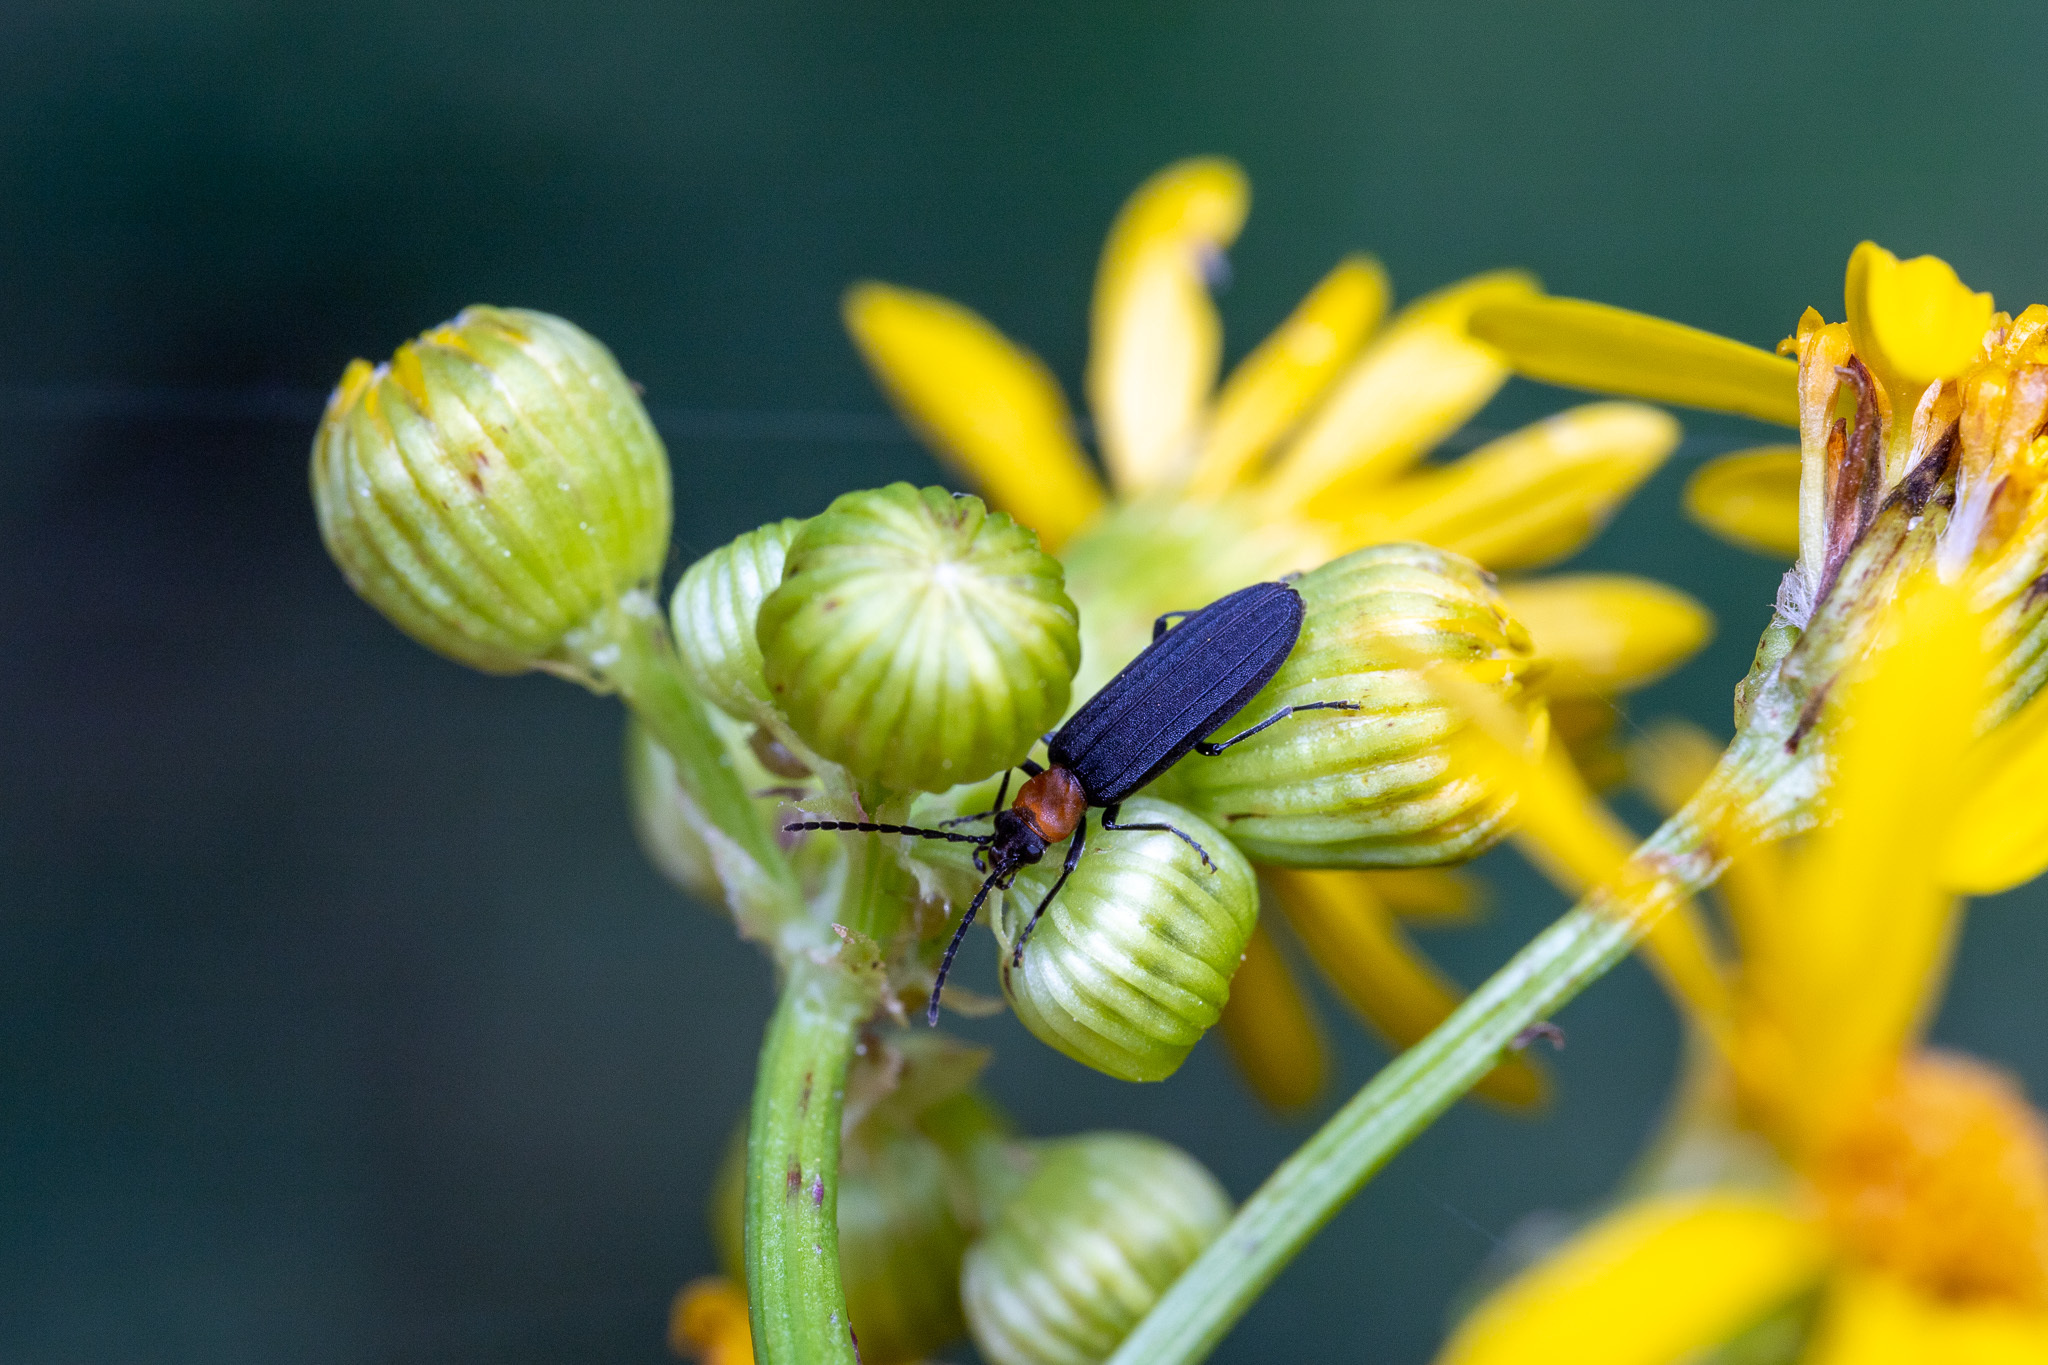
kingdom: Animalia
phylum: Arthropoda
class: Insecta
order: Coleoptera
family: Oedemeridae
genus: Ischnomera
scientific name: Ischnomera
